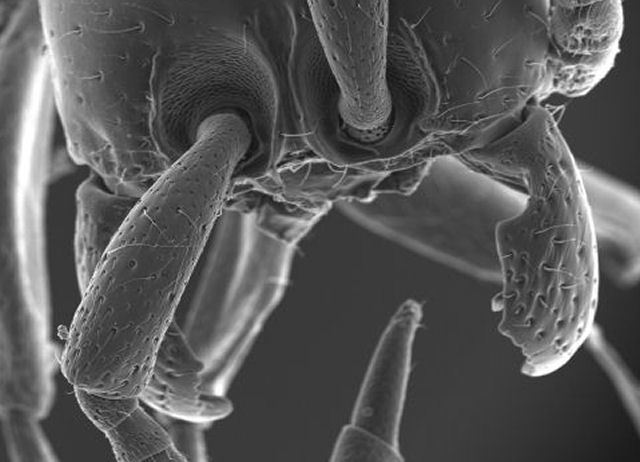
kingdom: Animalia
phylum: Arthropoda
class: Insecta
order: Hymenoptera
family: Formicidae
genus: Neivamyrmex
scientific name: Neivamyrmex carolinensis
